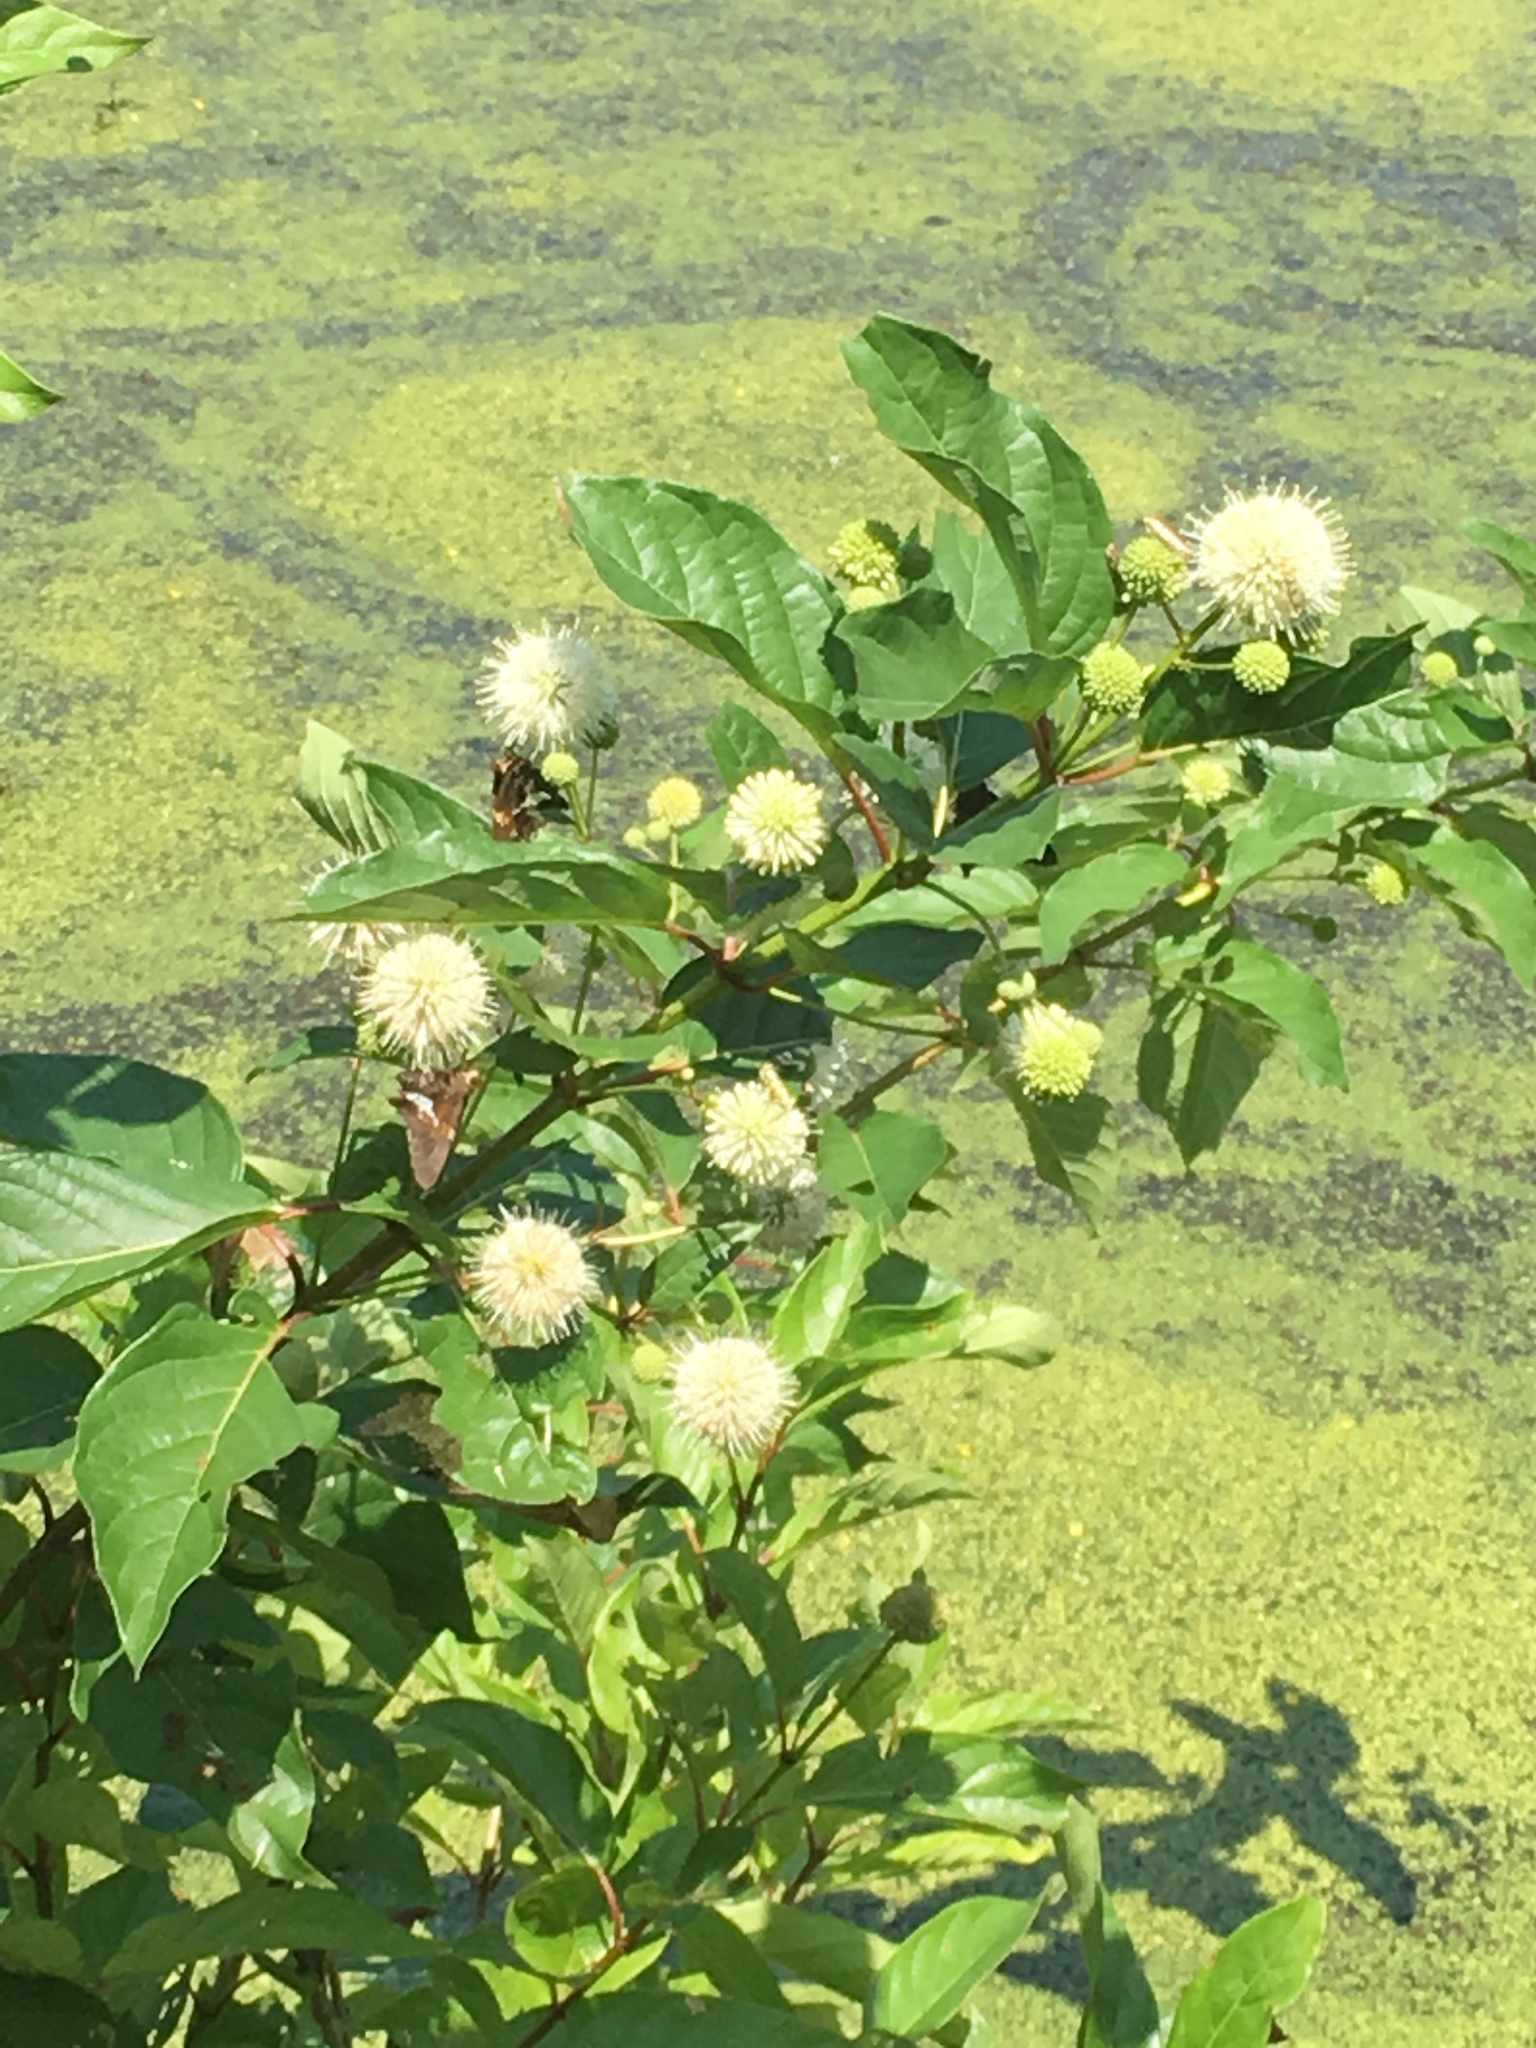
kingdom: Plantae
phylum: Tracheophyta
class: Magnoliopsida
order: Gentianales
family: Rubiaceae
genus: Cephalanthus
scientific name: Cephalanthus occidentalis
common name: Button-willow
